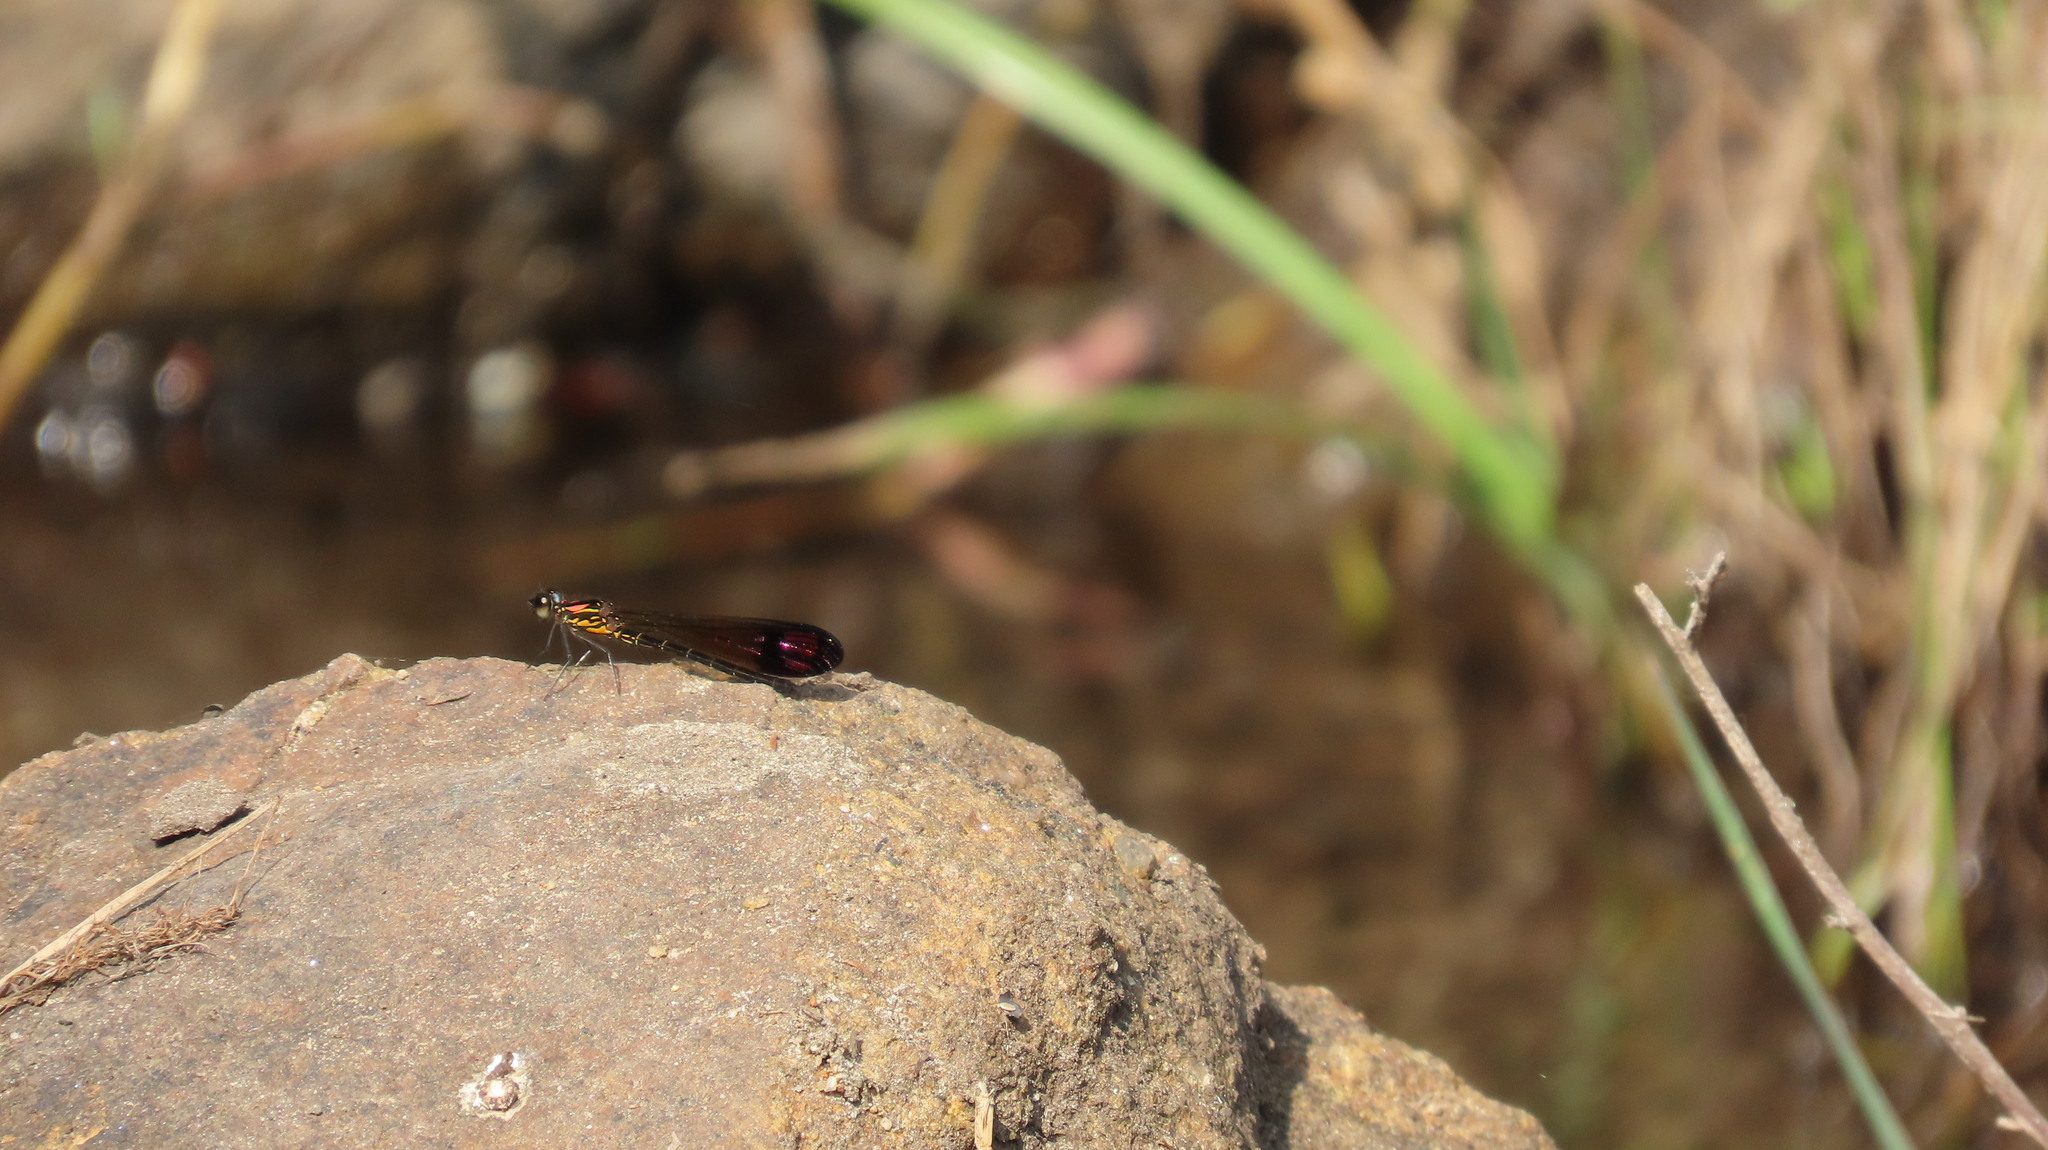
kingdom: Animalia
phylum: Arthropoda
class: Insecta
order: Odonata
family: Chlorocyphidae
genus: Heliocypha
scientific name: Heliocypha bisignata
